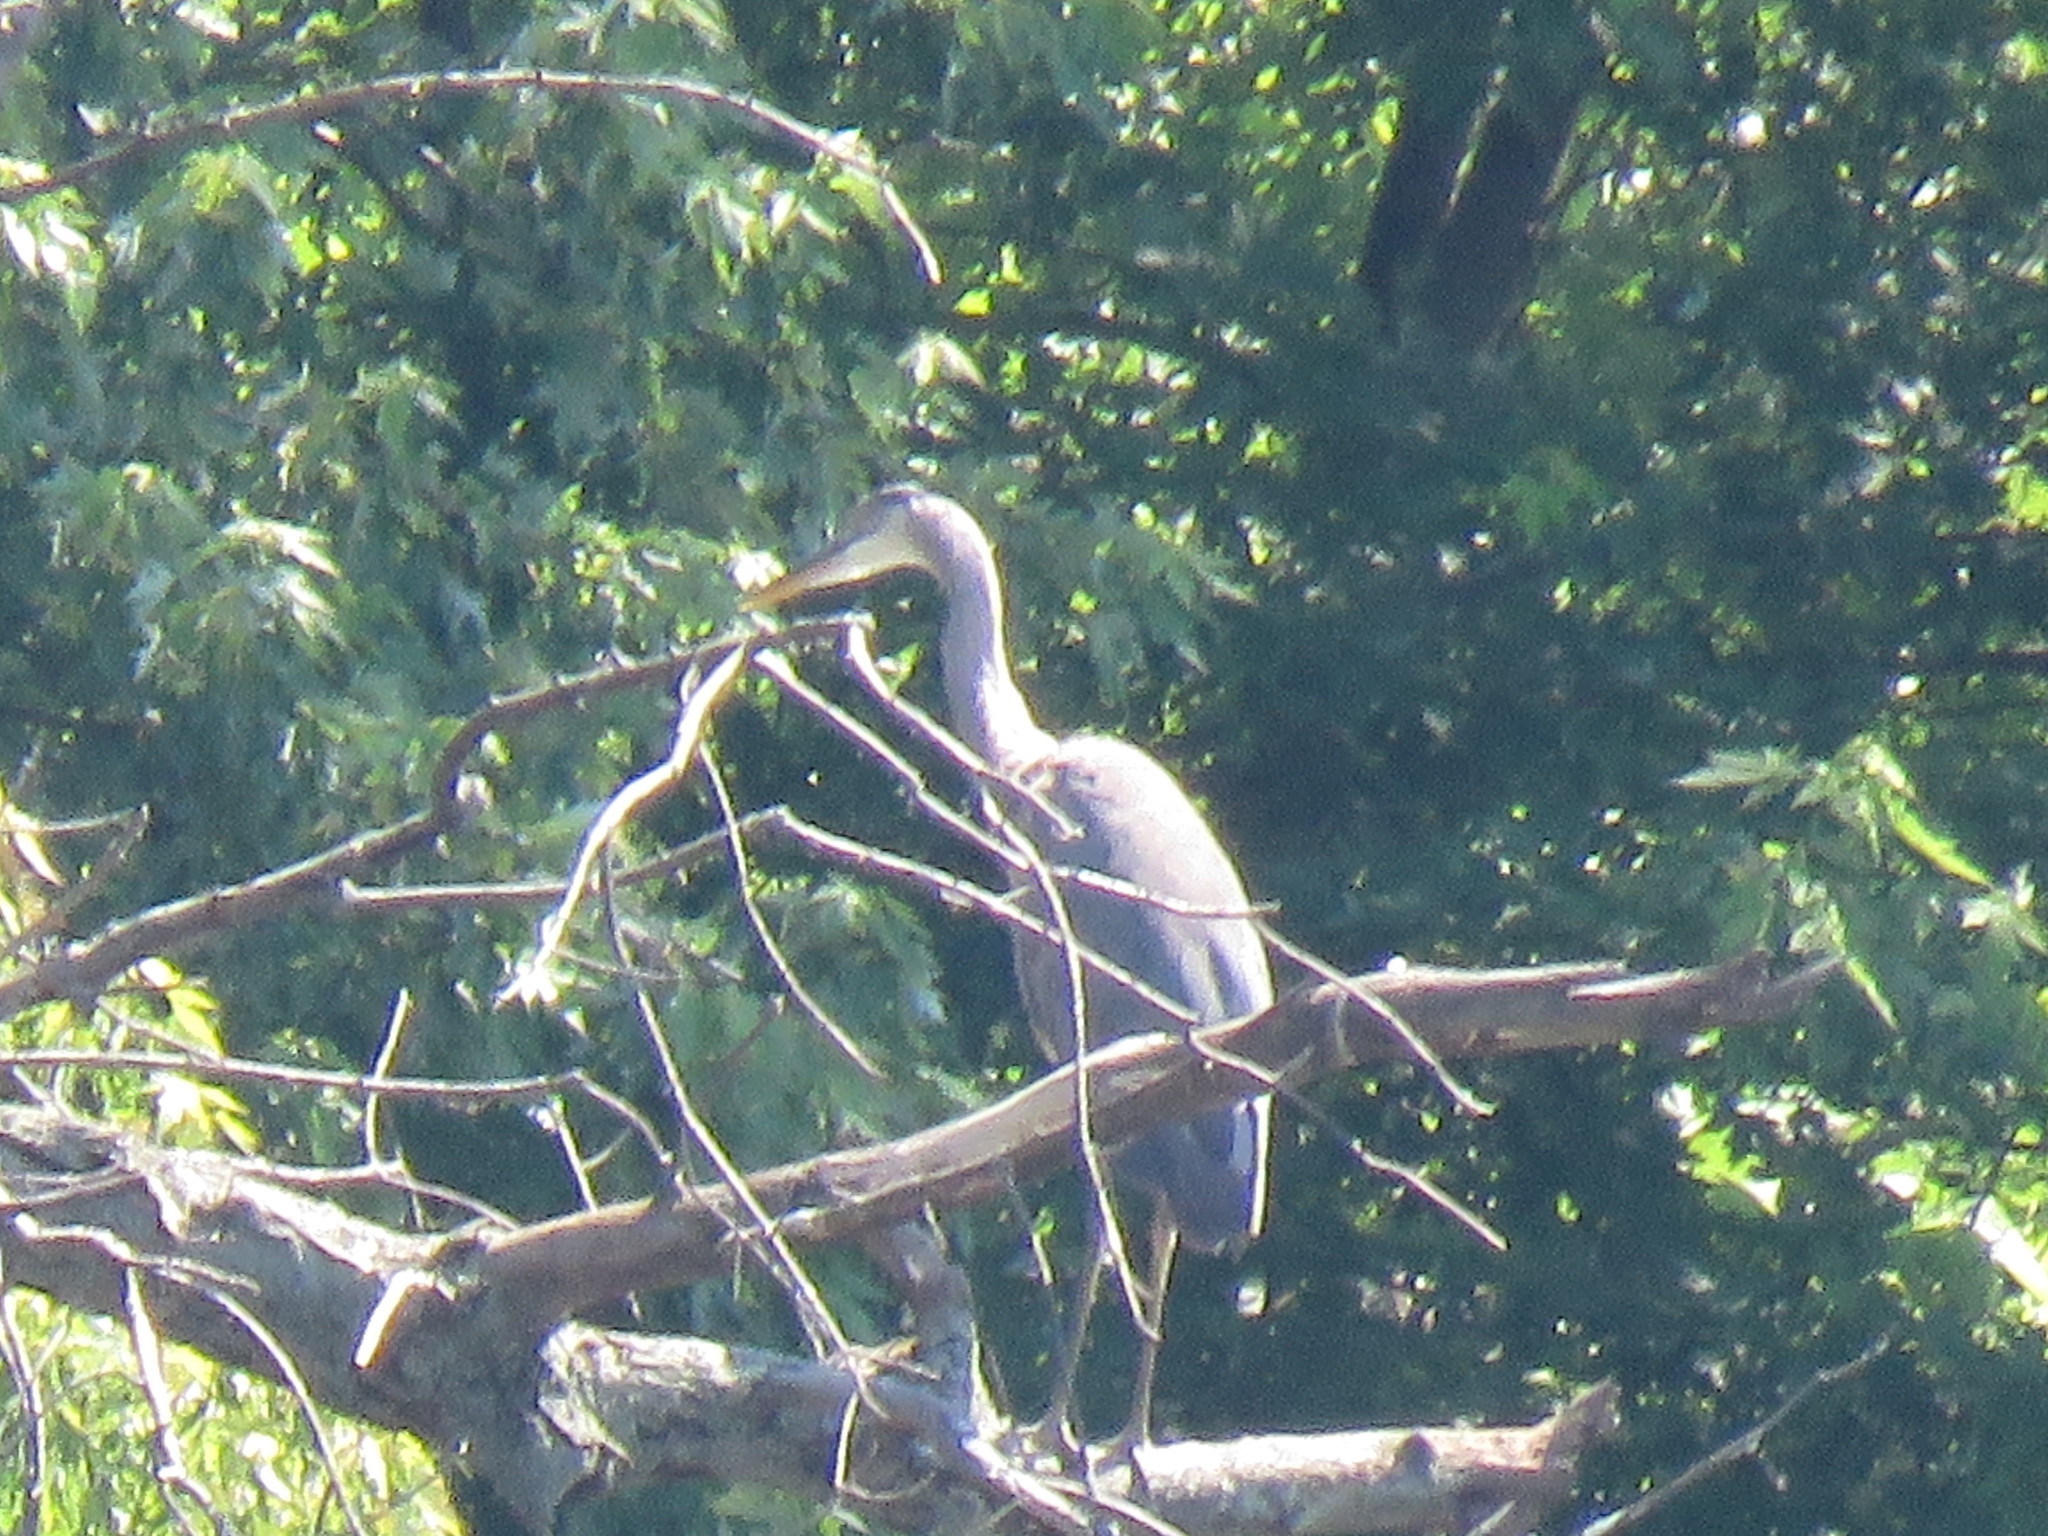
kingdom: Animalia
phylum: Chordata
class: Aves
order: Pelecaniformes
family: Ardeidae
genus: Ardea
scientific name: Ardea herodias
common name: Great blue heron
